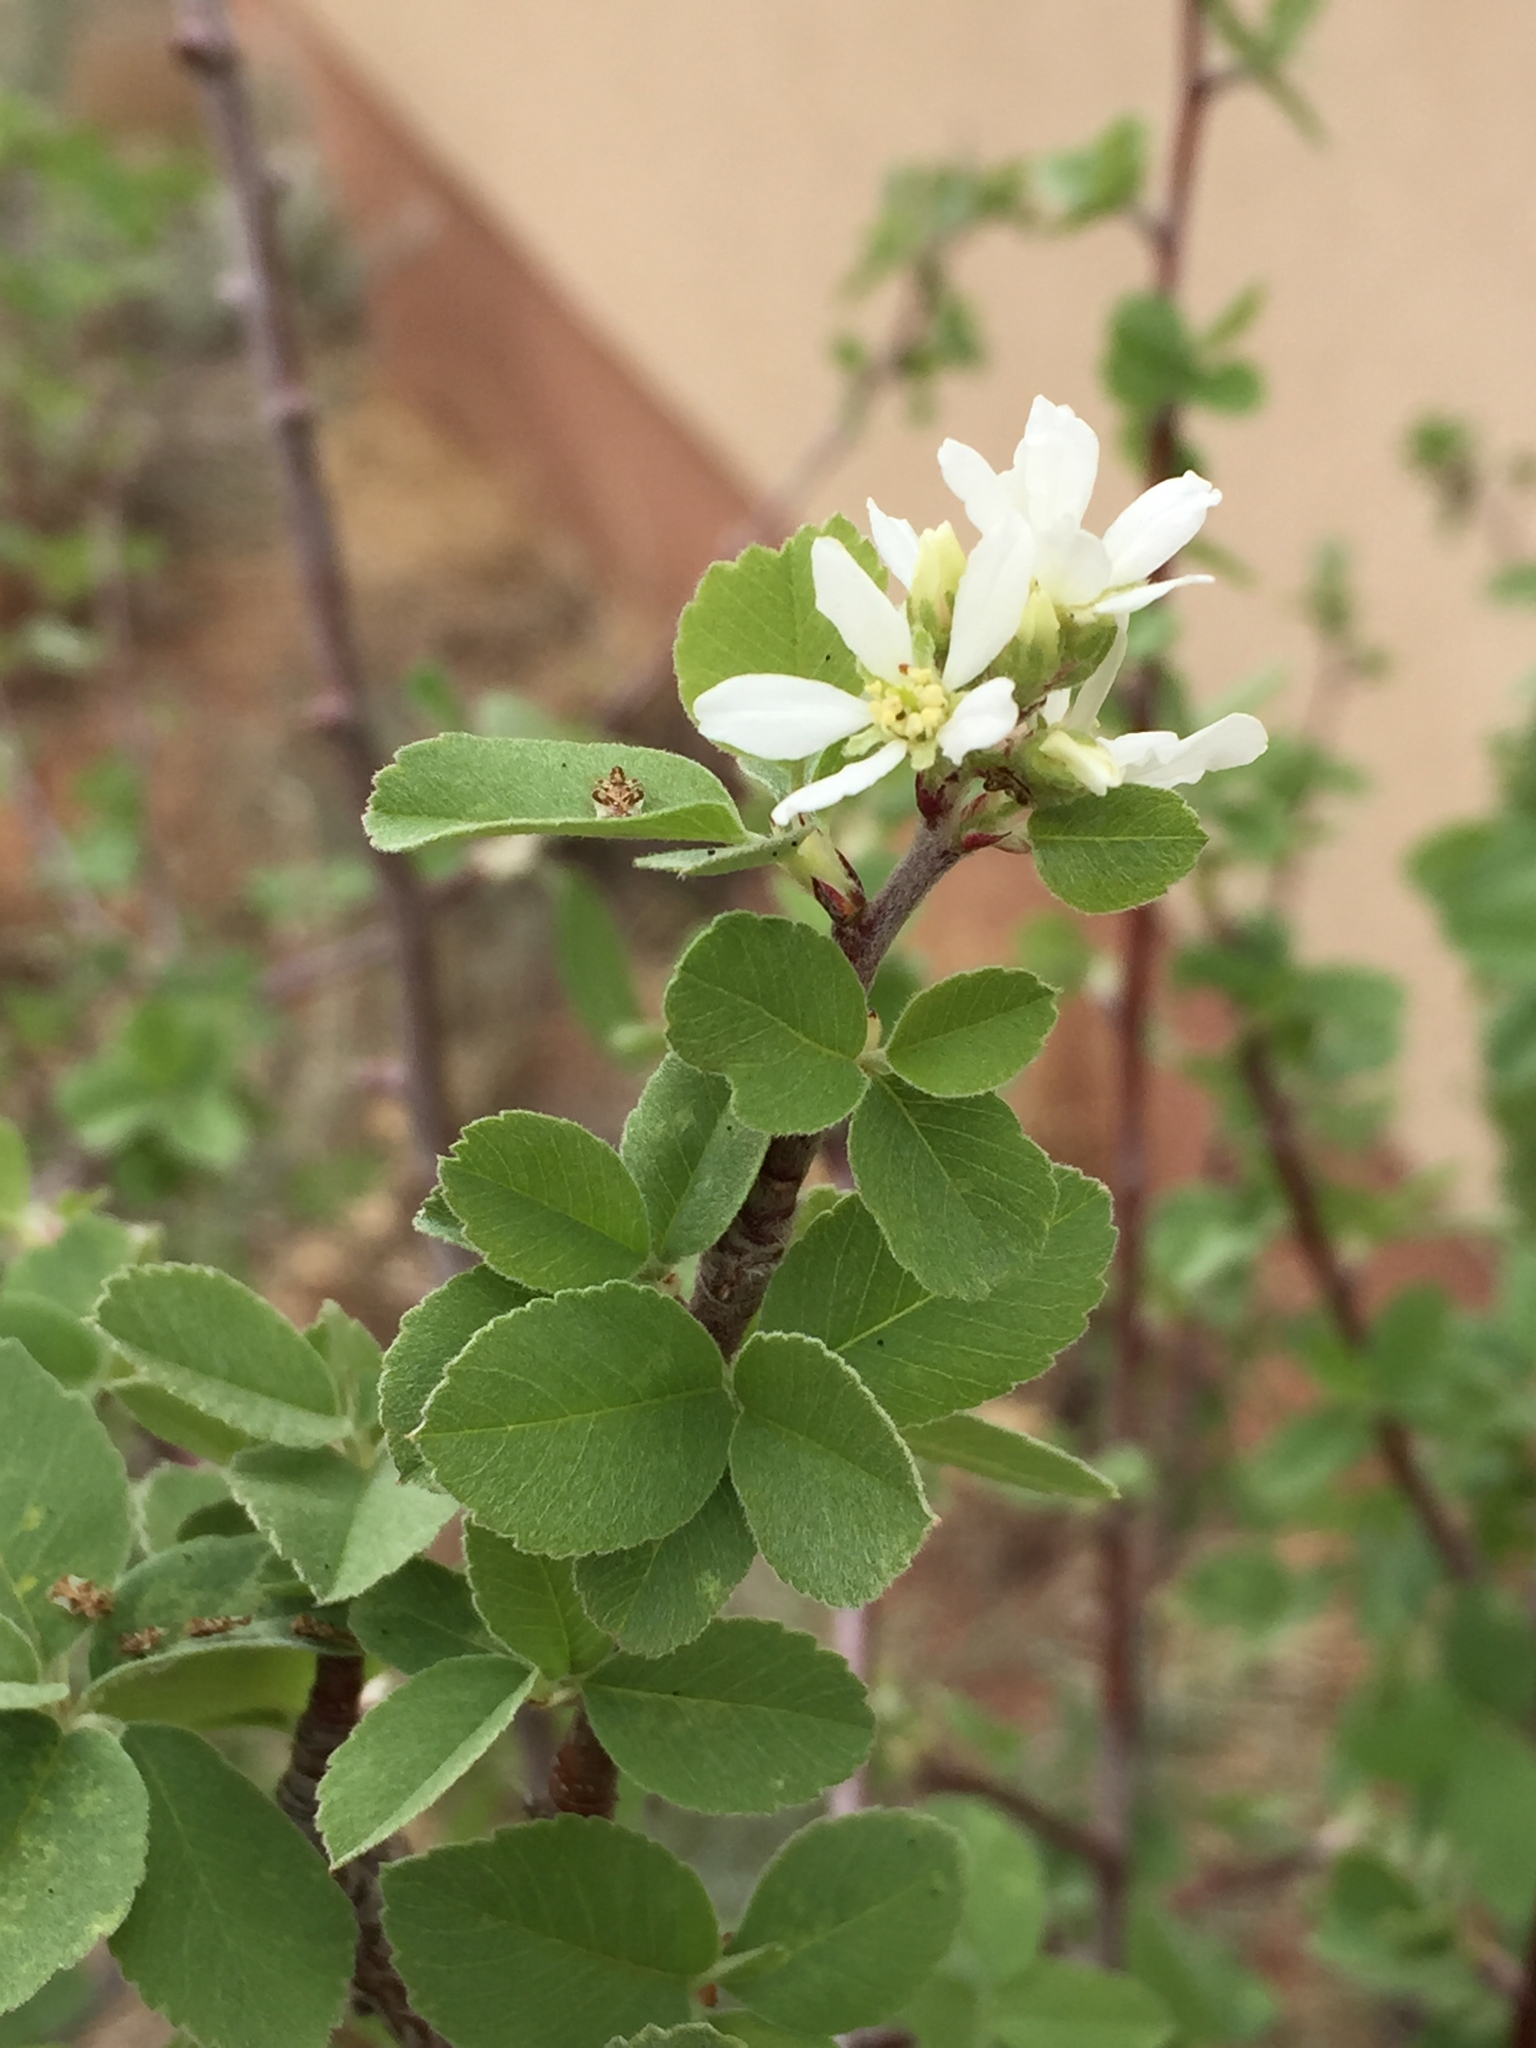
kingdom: Plantae
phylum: Tracheophyta
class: Magnoliopsida
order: Rosales
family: Rosaceae
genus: Amelanchier
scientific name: Amelanchier utahensis
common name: Utah serviceberry
